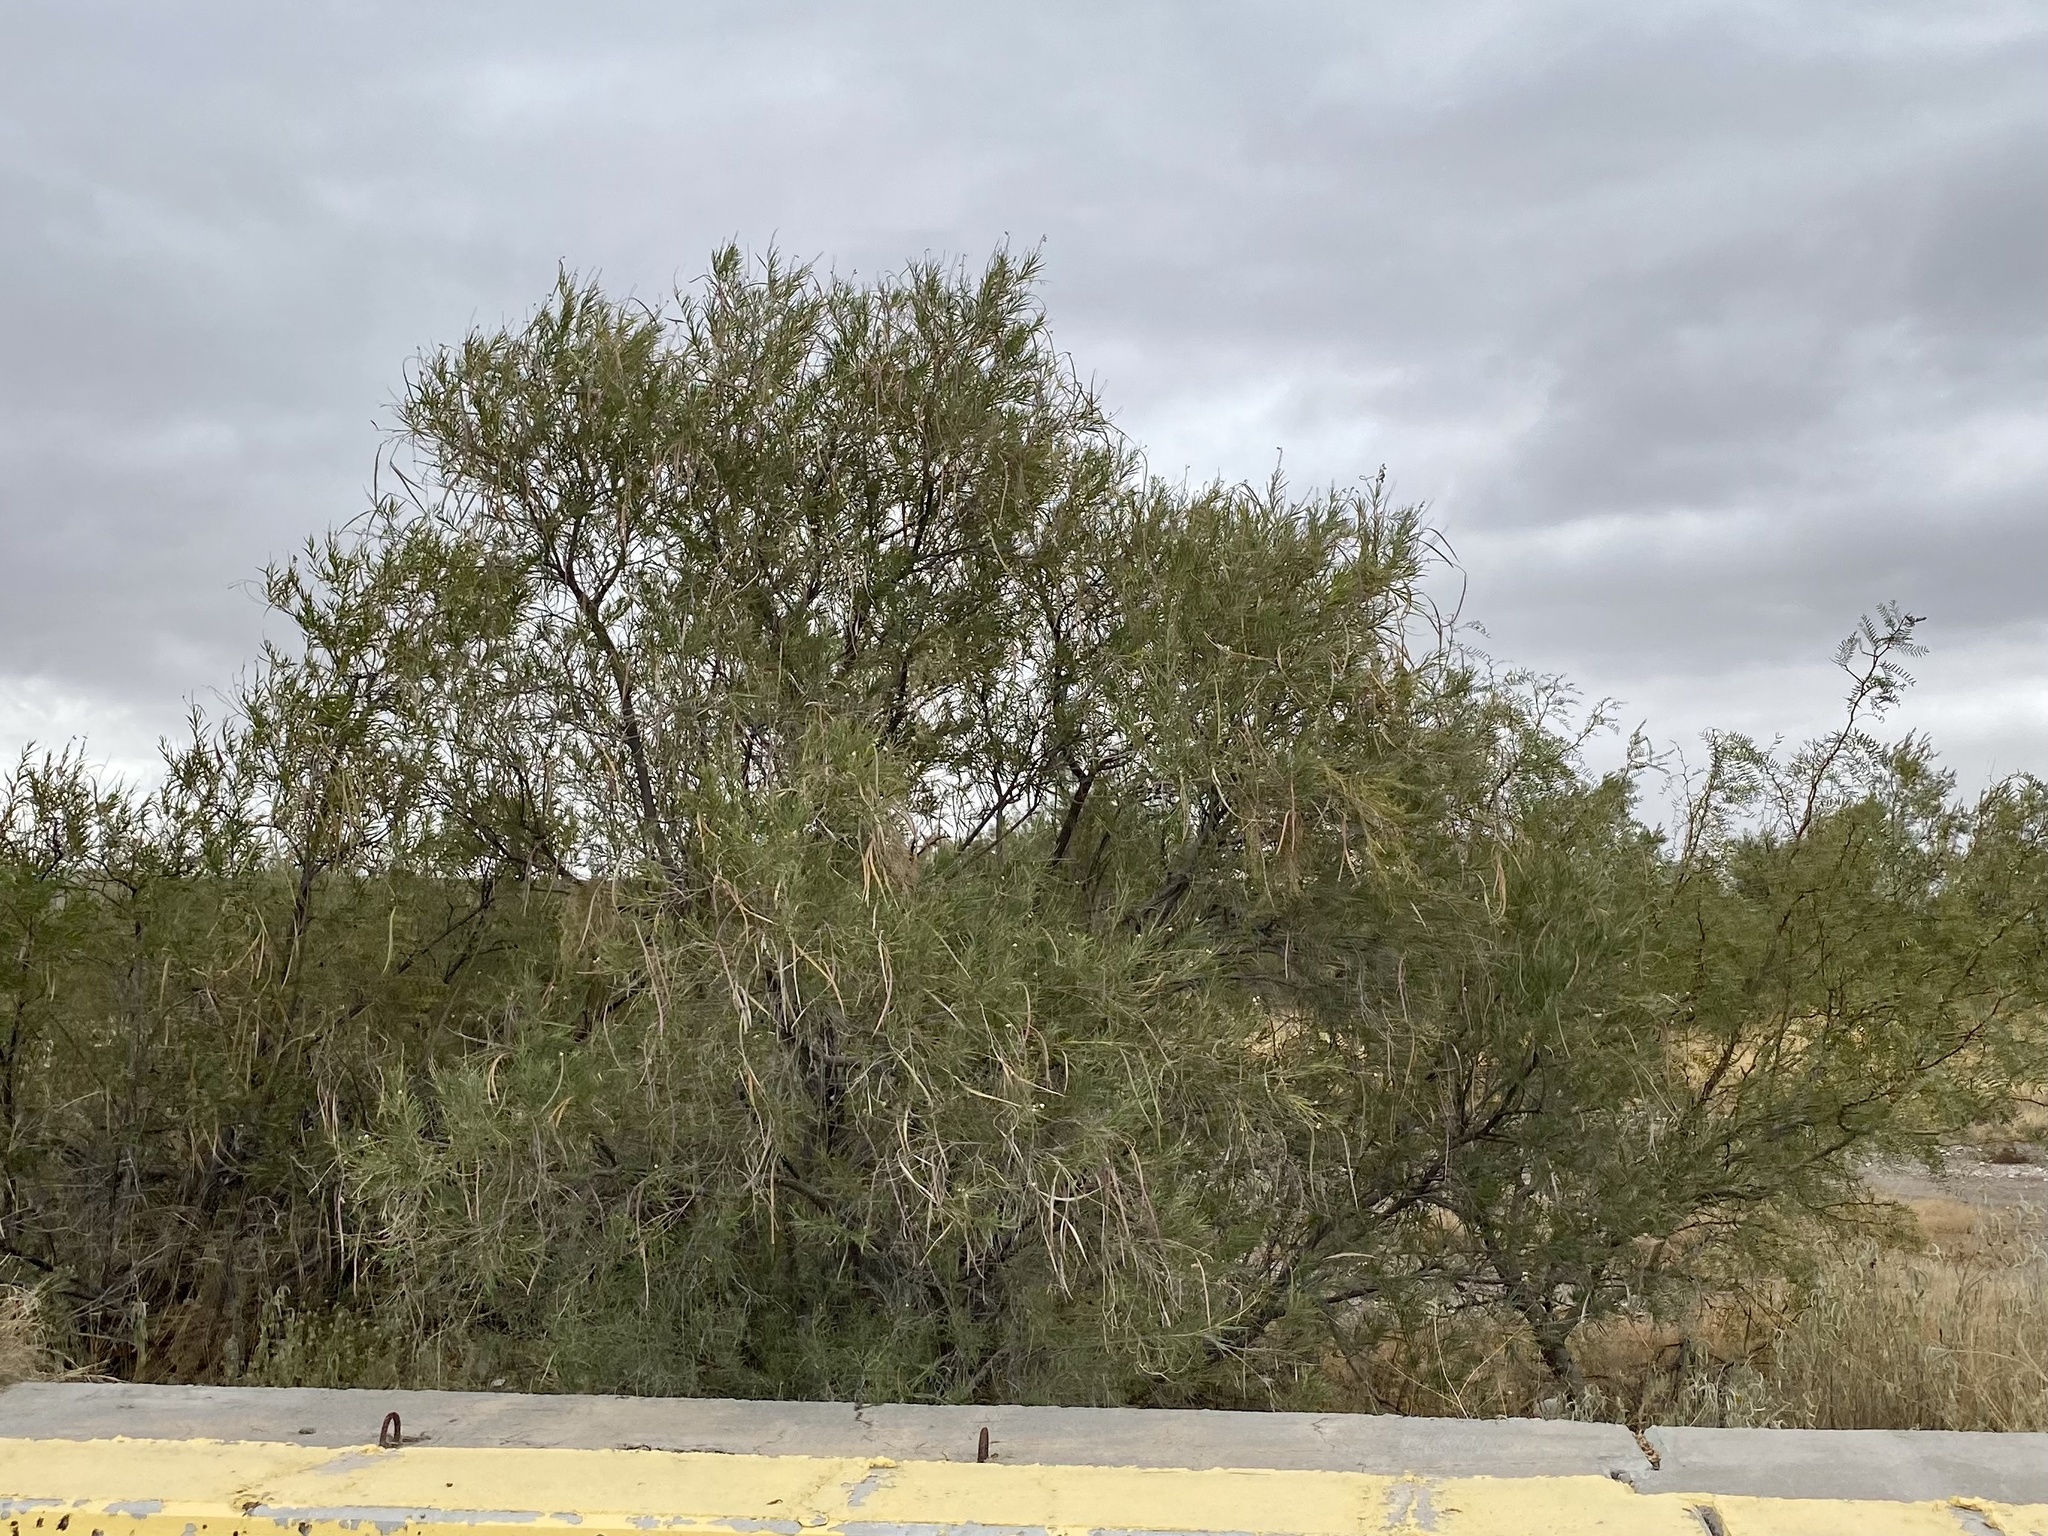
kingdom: Plantae
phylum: Tracheophyta
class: Magnoliopsida
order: Lamiales
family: Bignoniaceae
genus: Chilopsis
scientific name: Chilopsis linearis
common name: Desert-willow
